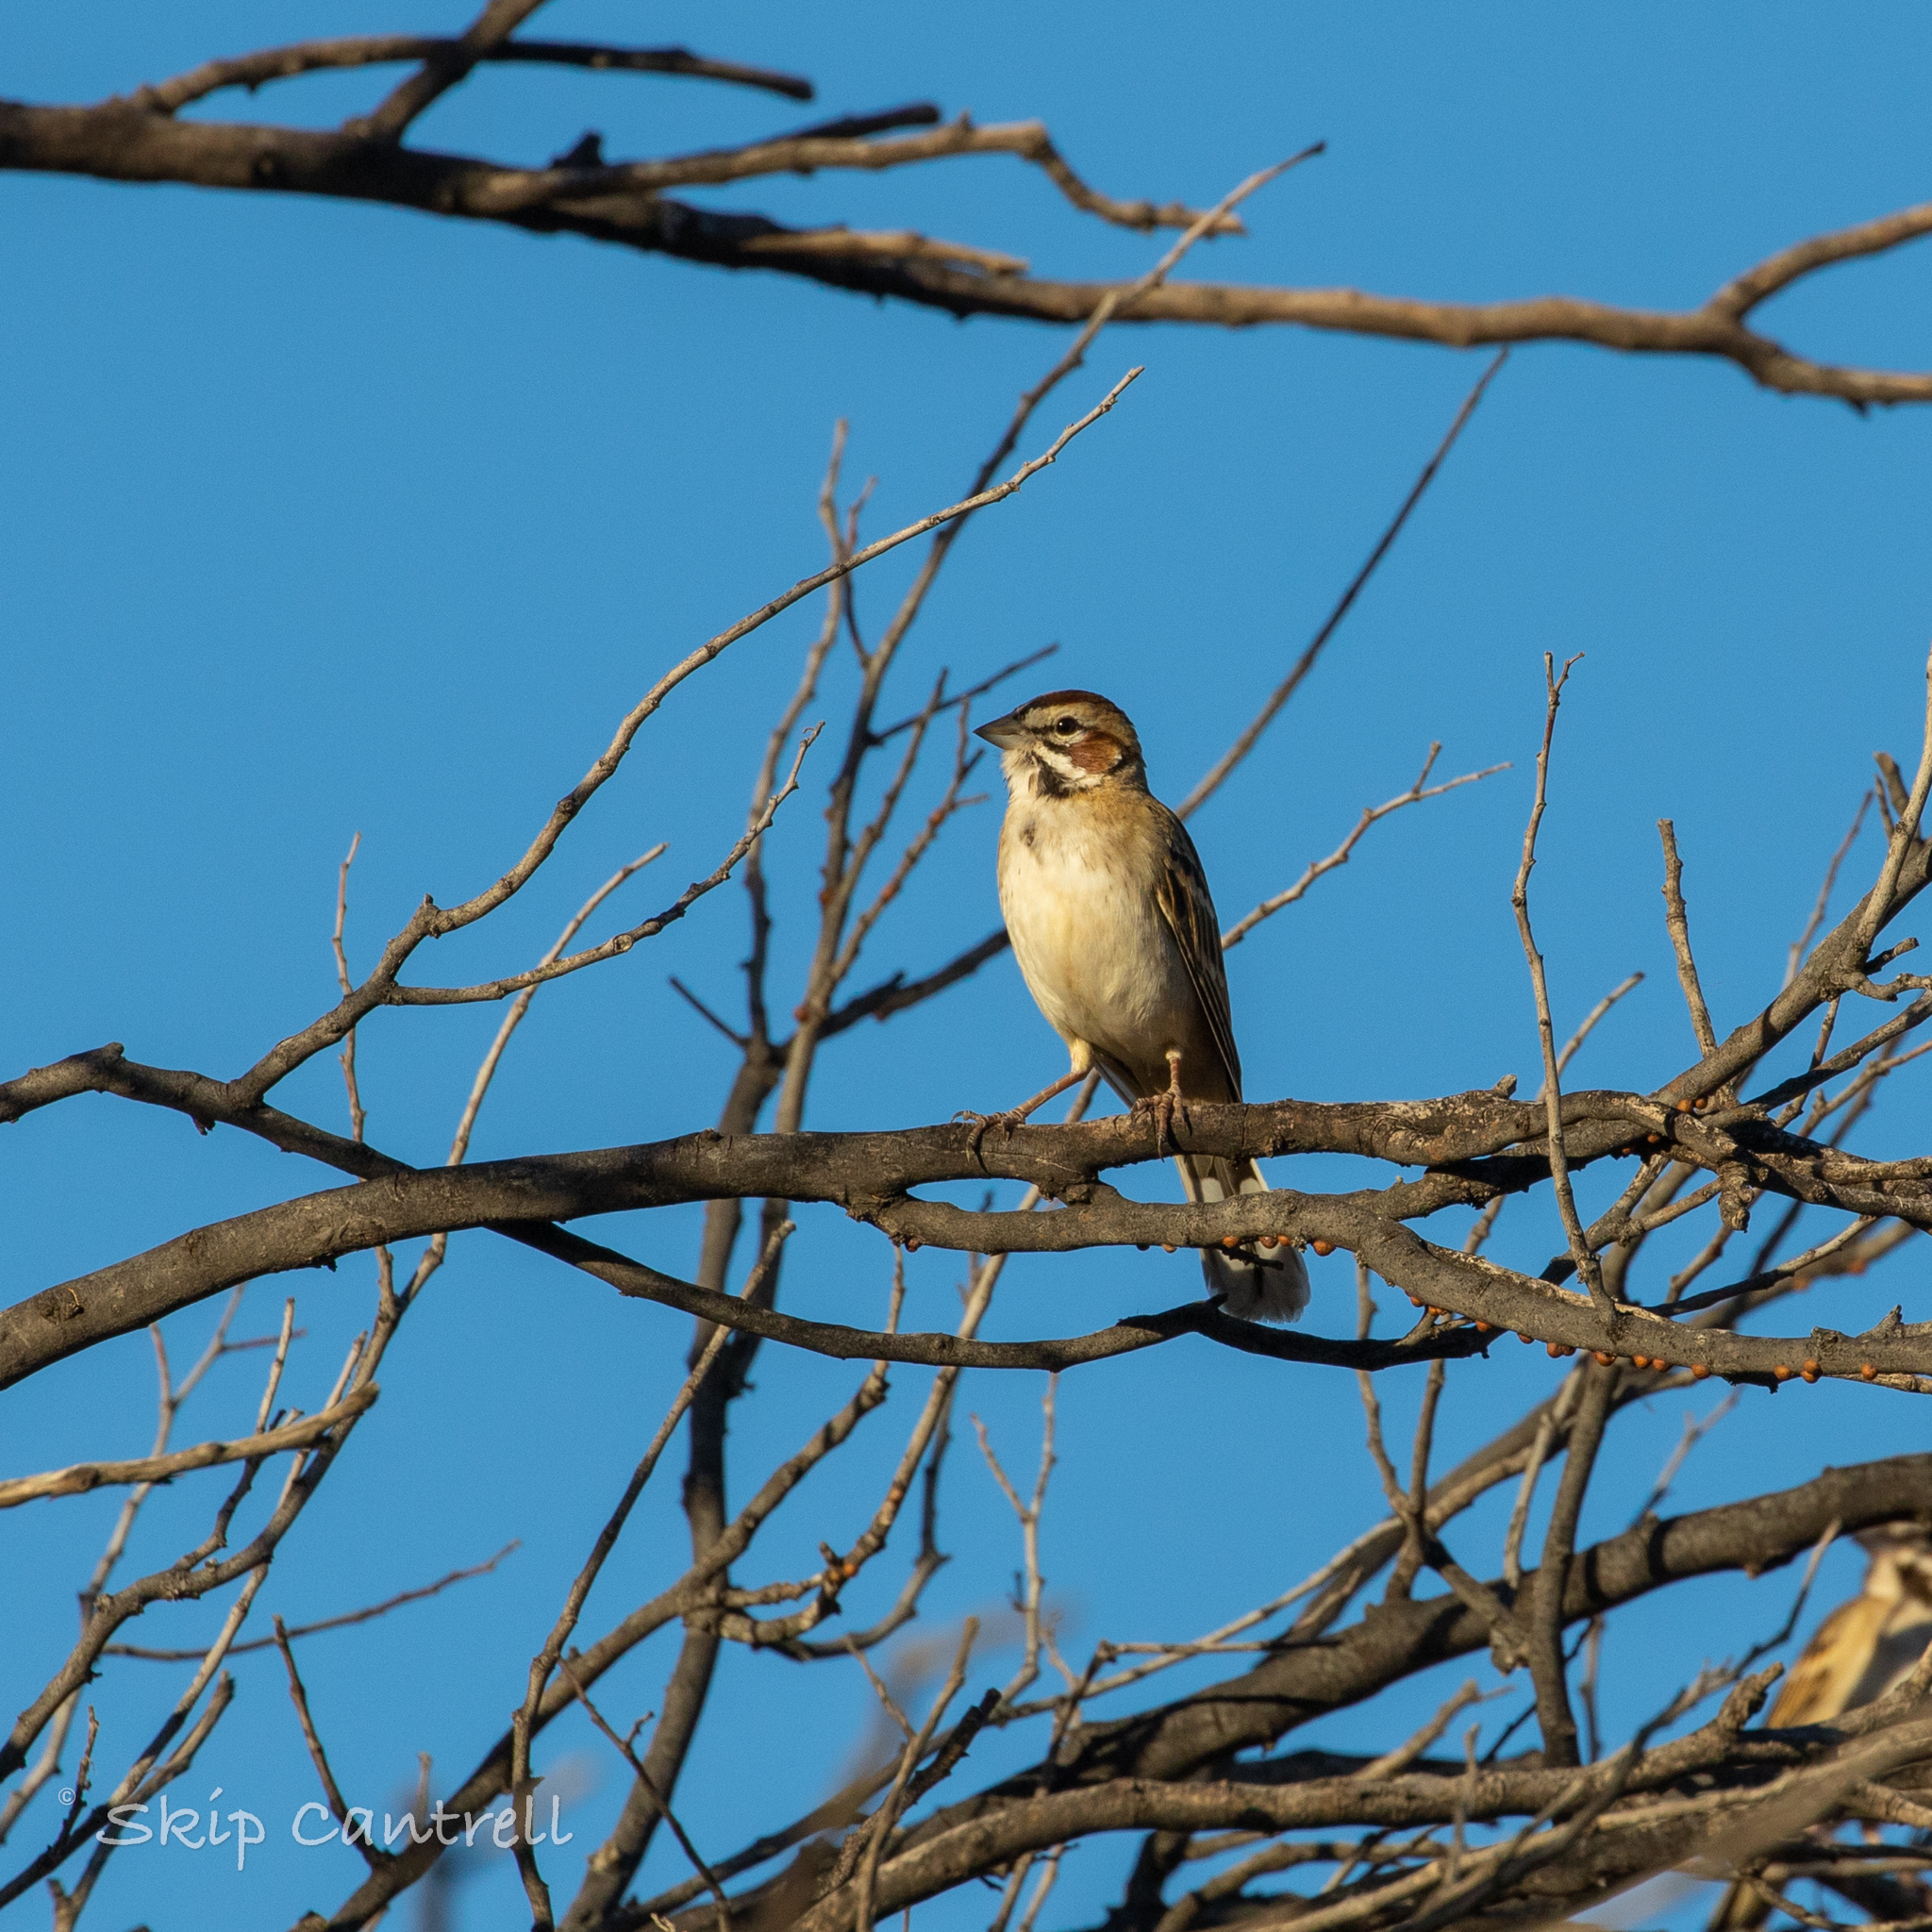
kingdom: Animalia
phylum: Chordata
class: Aves
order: Passeriformes
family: Passerellidae
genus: Chondestes
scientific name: Chondestes grammacus
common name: Lark sparrow
